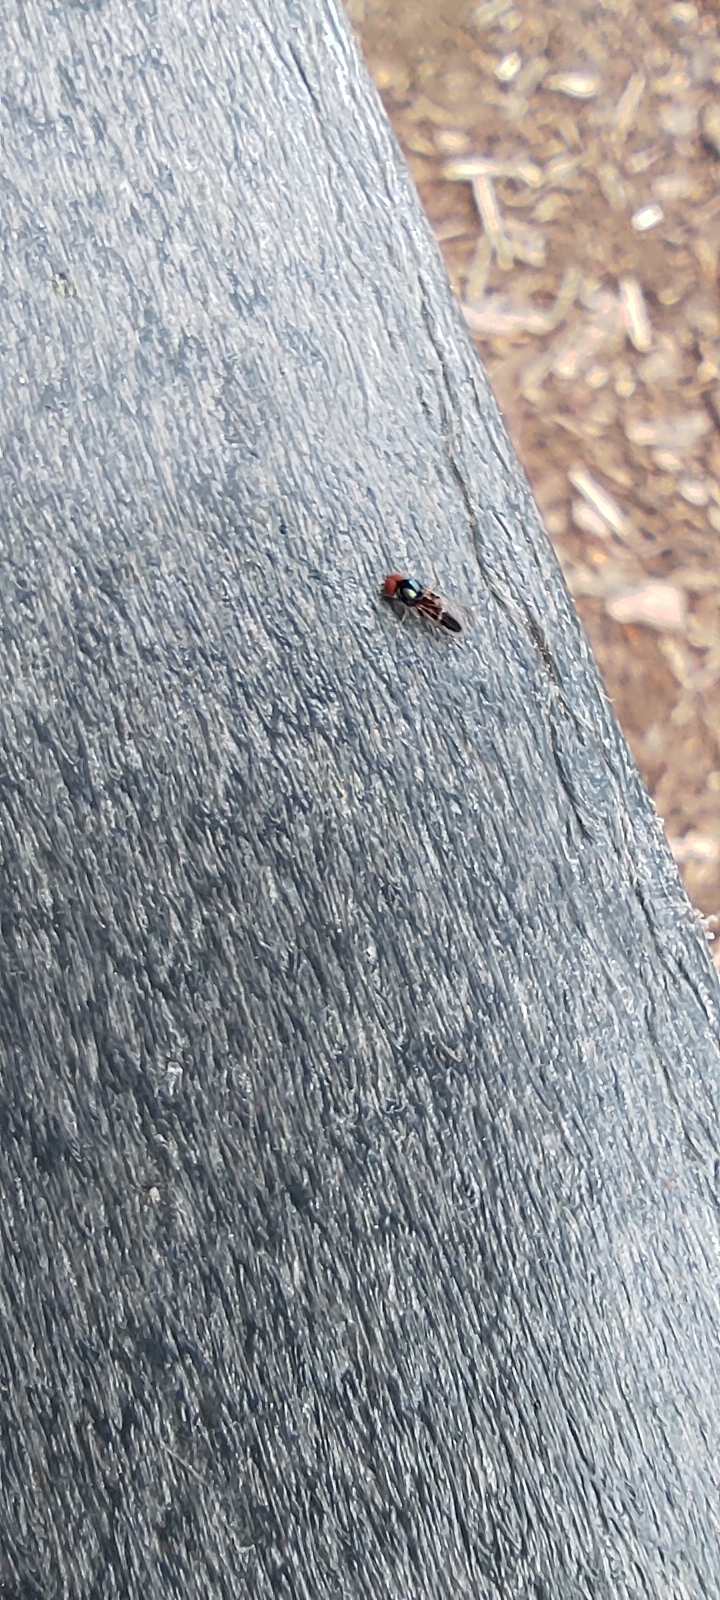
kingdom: Animalia
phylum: Arthropoda
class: Insecta
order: Diptera
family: Platypezidae
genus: Bertamyia
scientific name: Bertamyia notata
